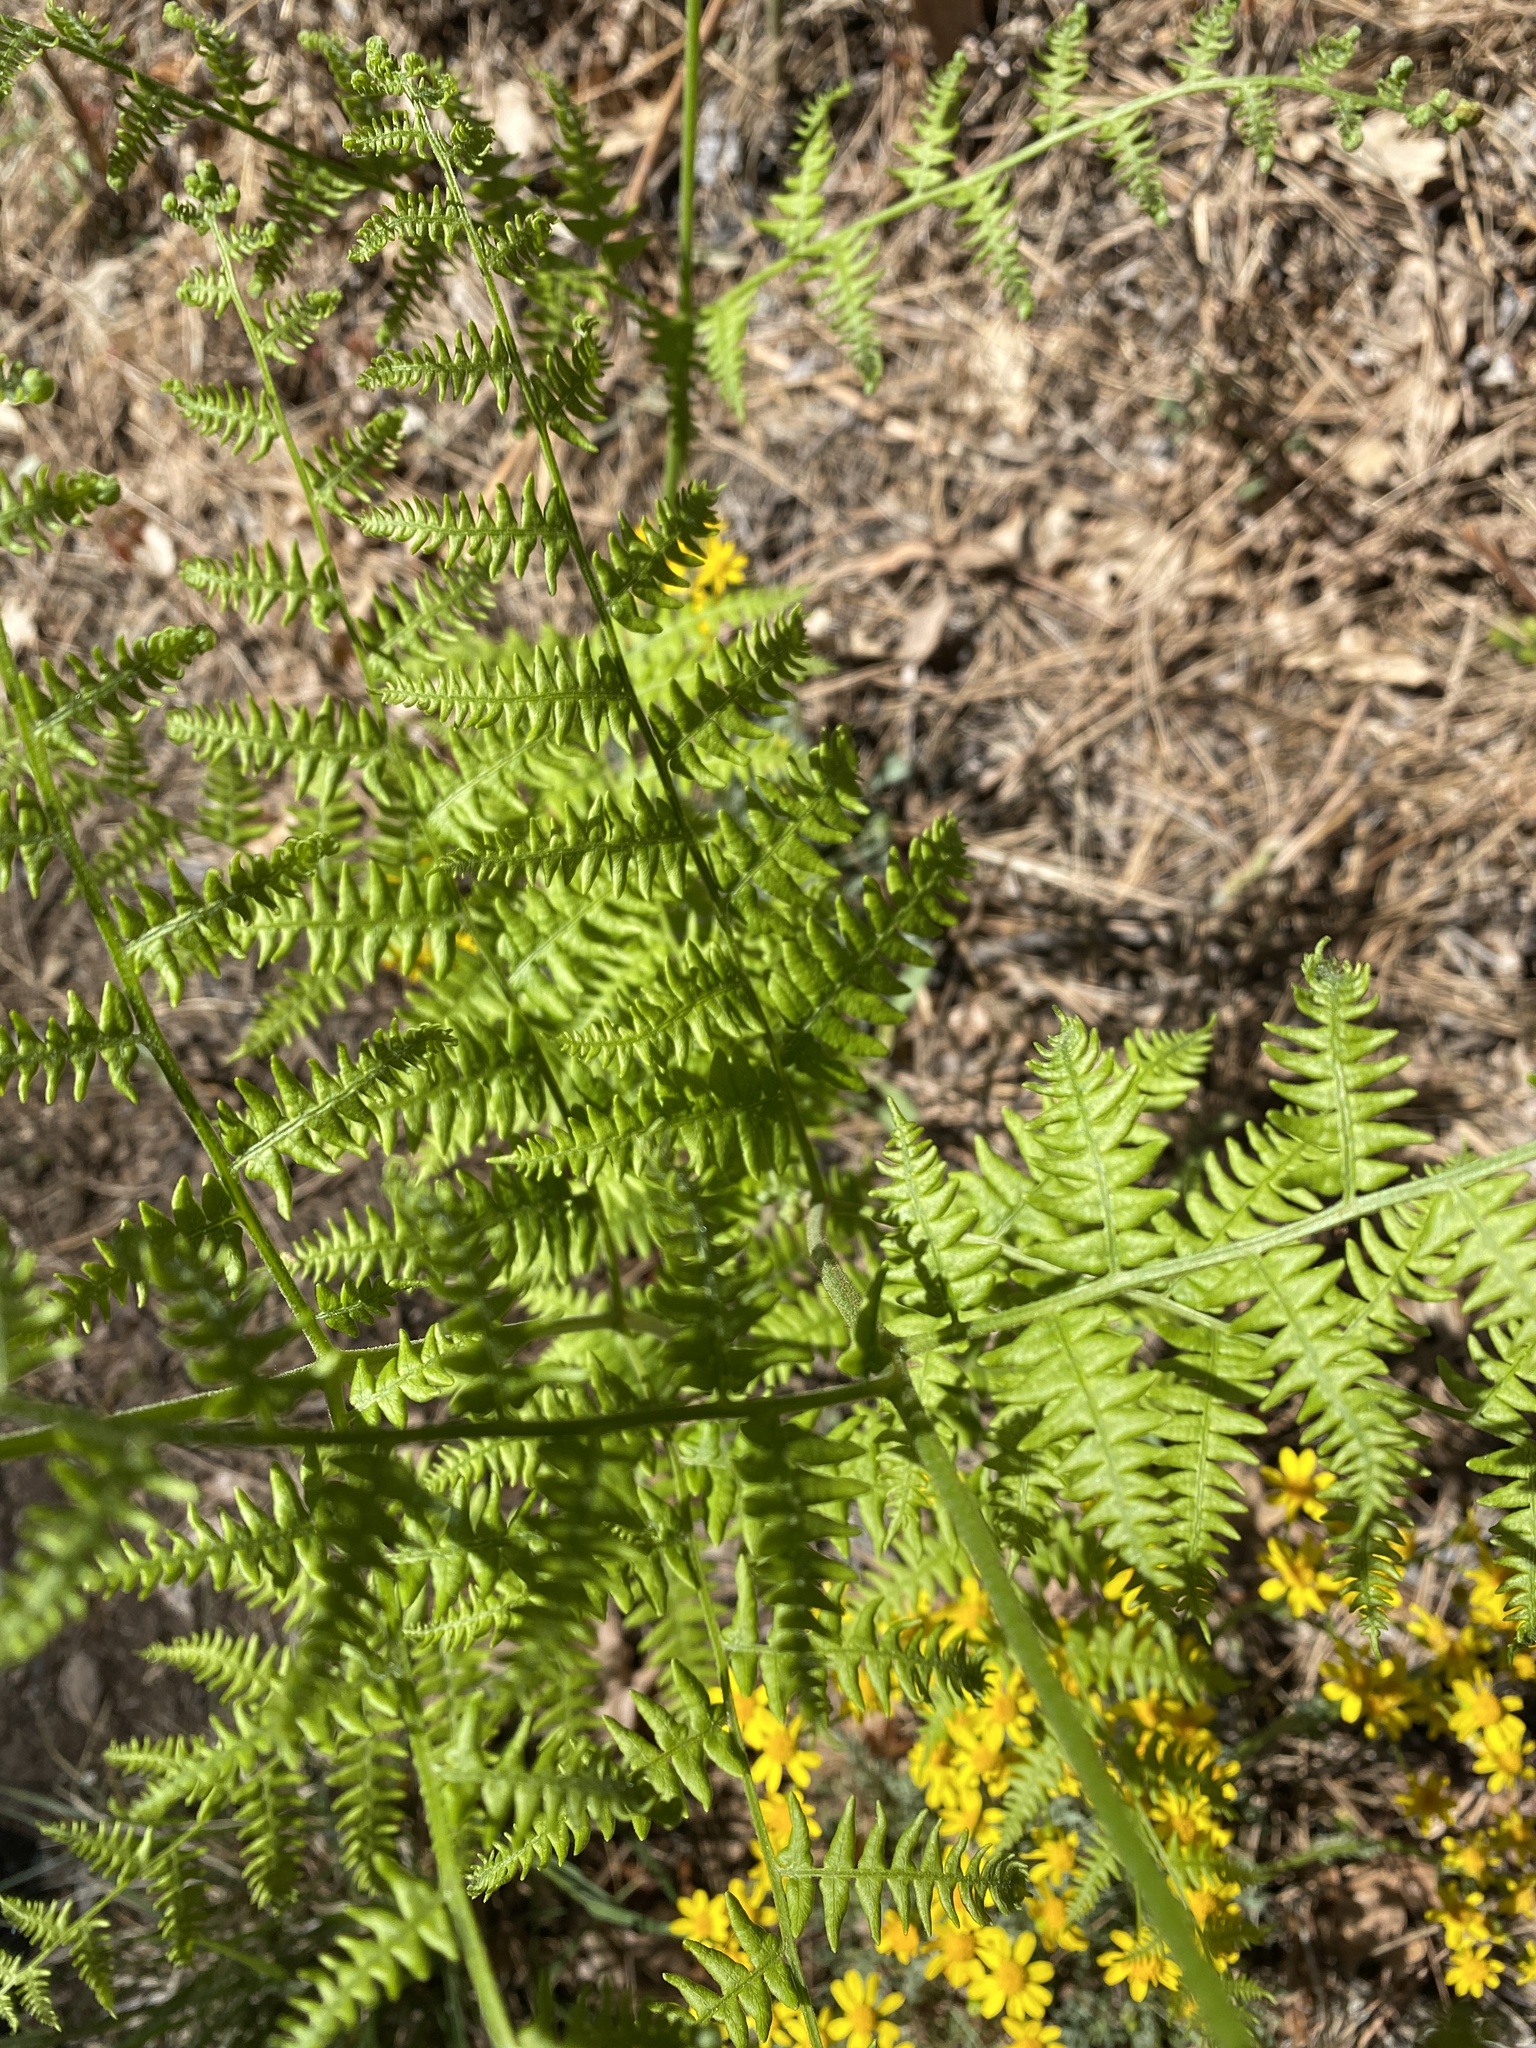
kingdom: Plantae
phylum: Tracheophyta
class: Polypodiopsida
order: Polypodiales
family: Dennstaedtiaceae
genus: Pteridium
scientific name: Pteridium aquilinum
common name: Bracken
